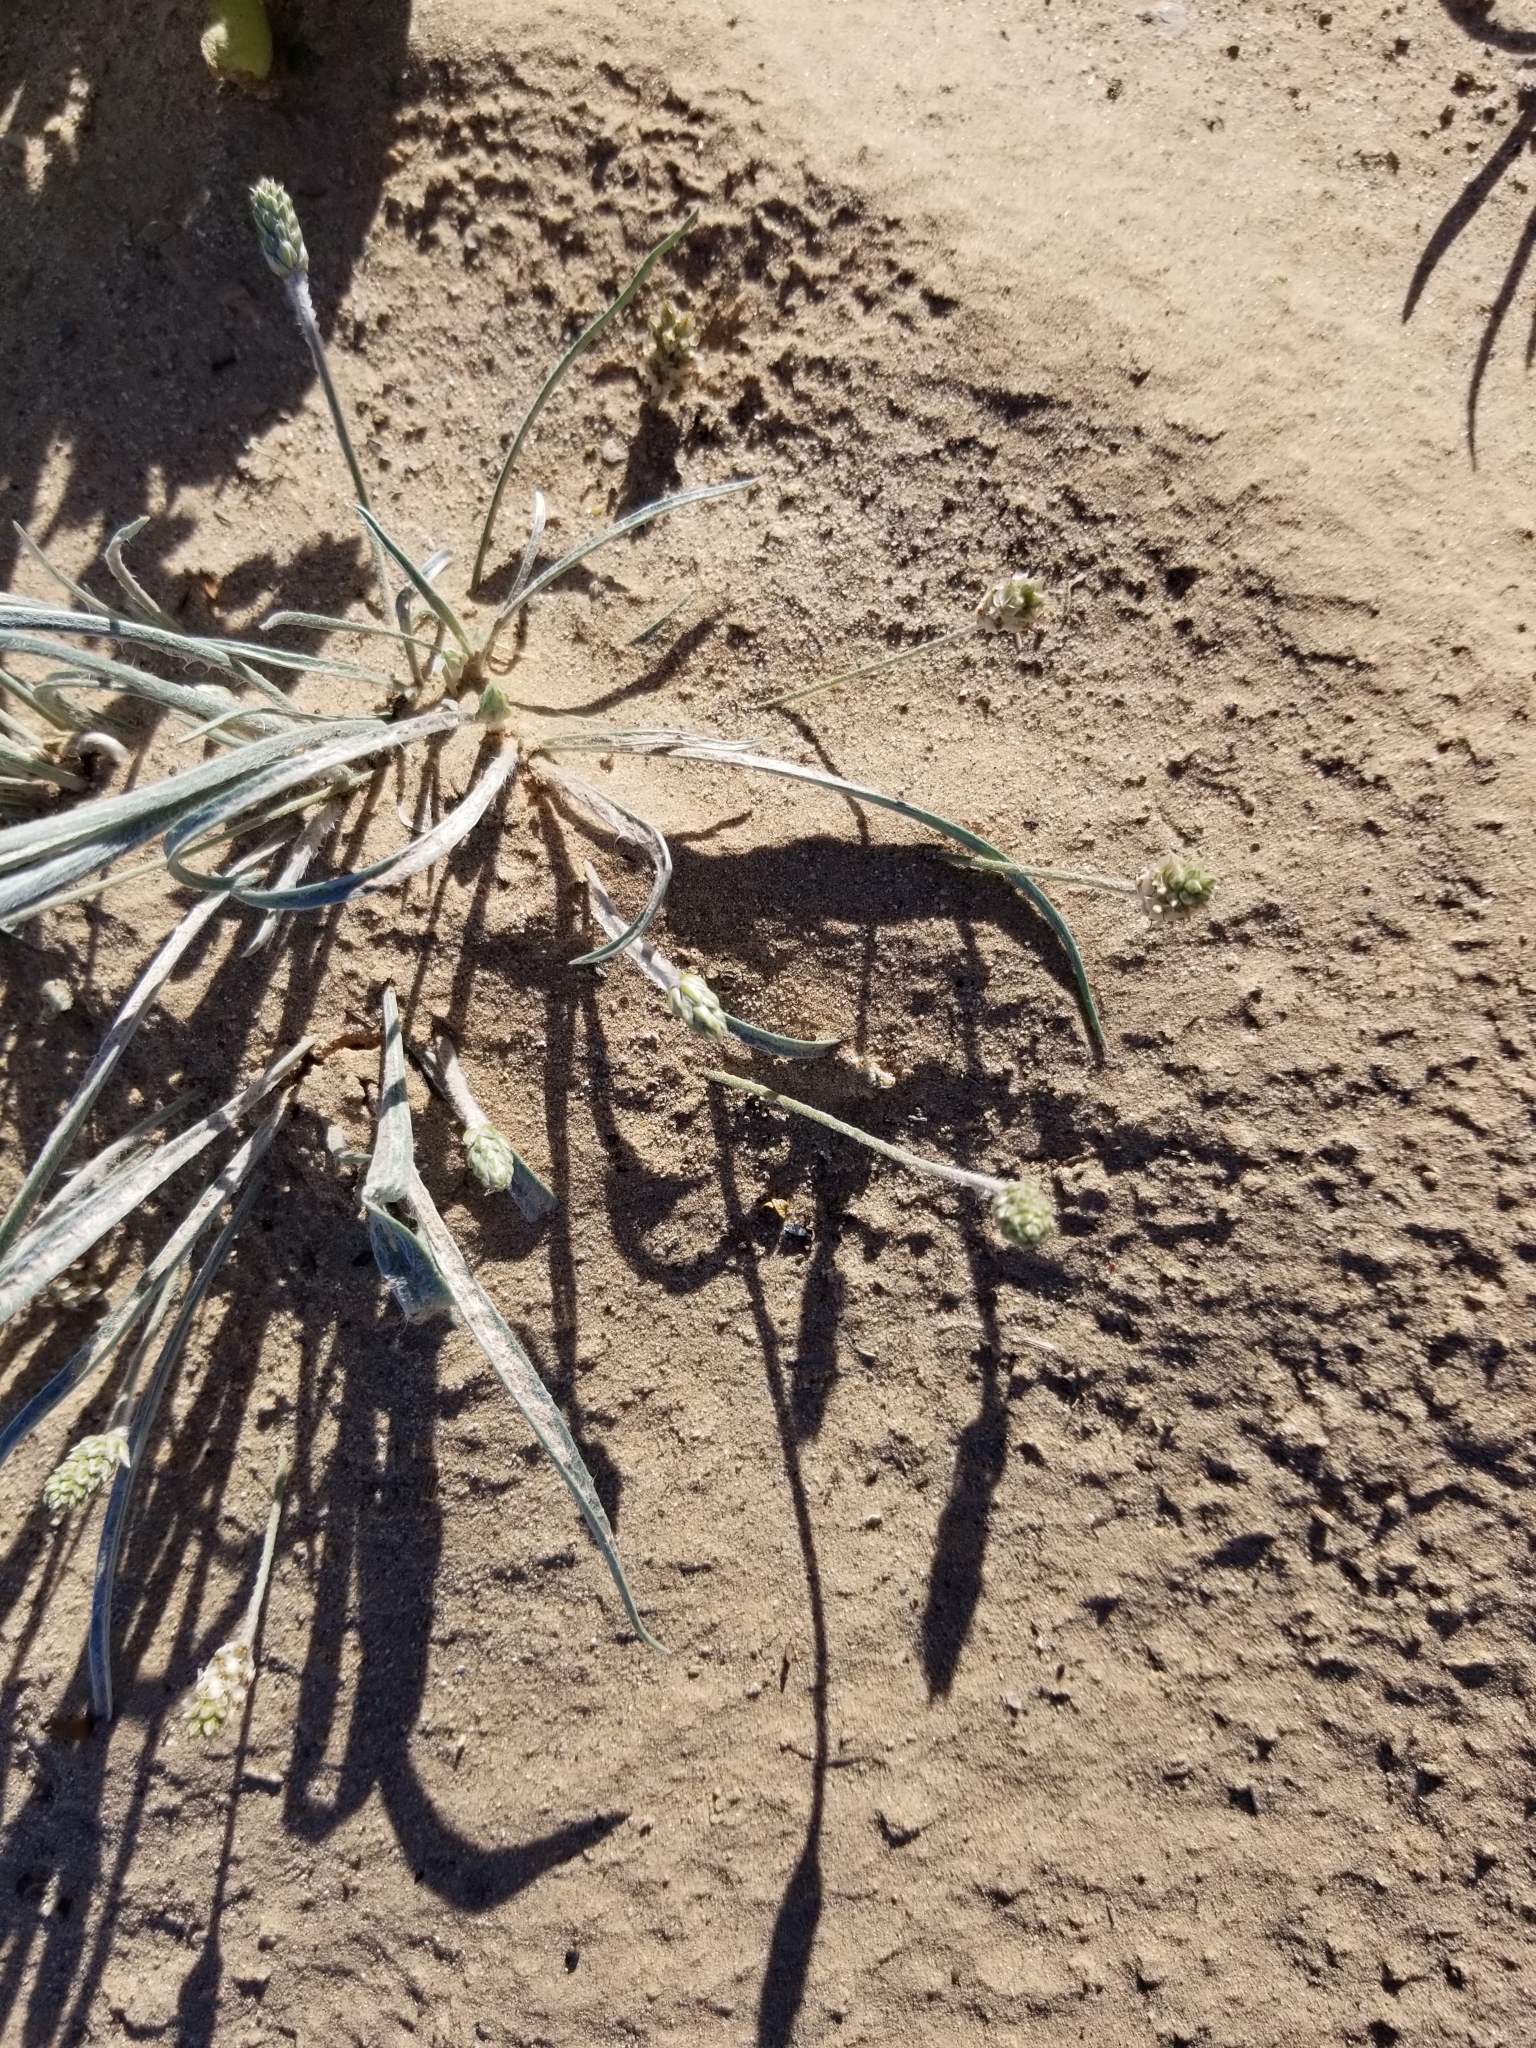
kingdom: Plantae
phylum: Tracheophyta
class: Magnoliopsida
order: Lamiales
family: Plantaginaceae
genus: Plantago
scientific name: Plantago ovata
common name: Blond plantain
